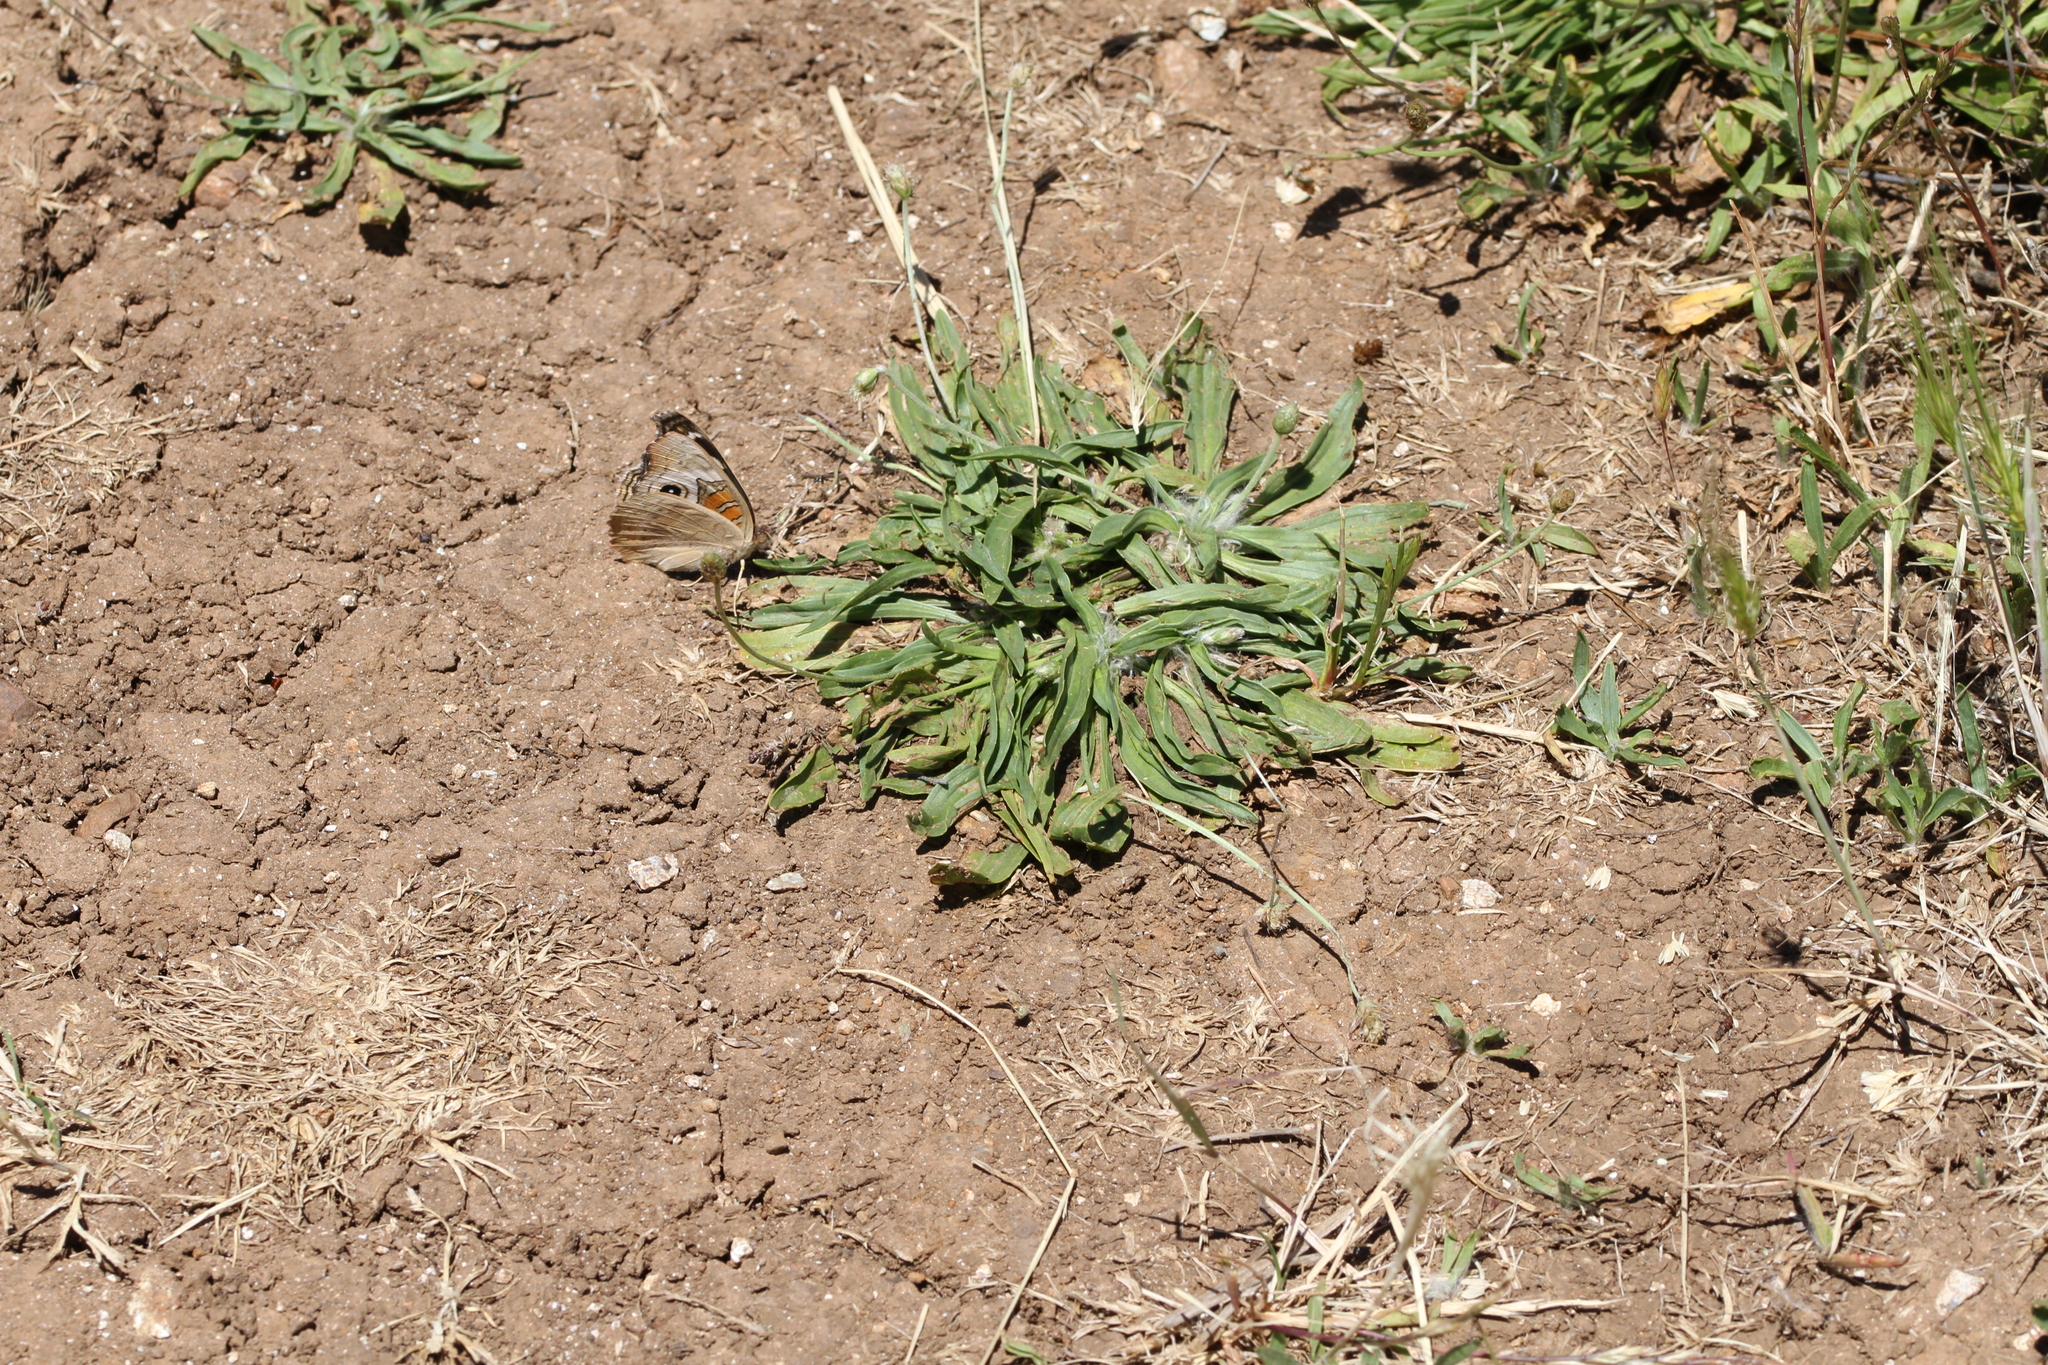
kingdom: Animalia
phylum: Arthropoda
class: Insecta
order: Lepidoptera
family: Nymphalidae
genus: Junonia
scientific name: Junonia grisea
